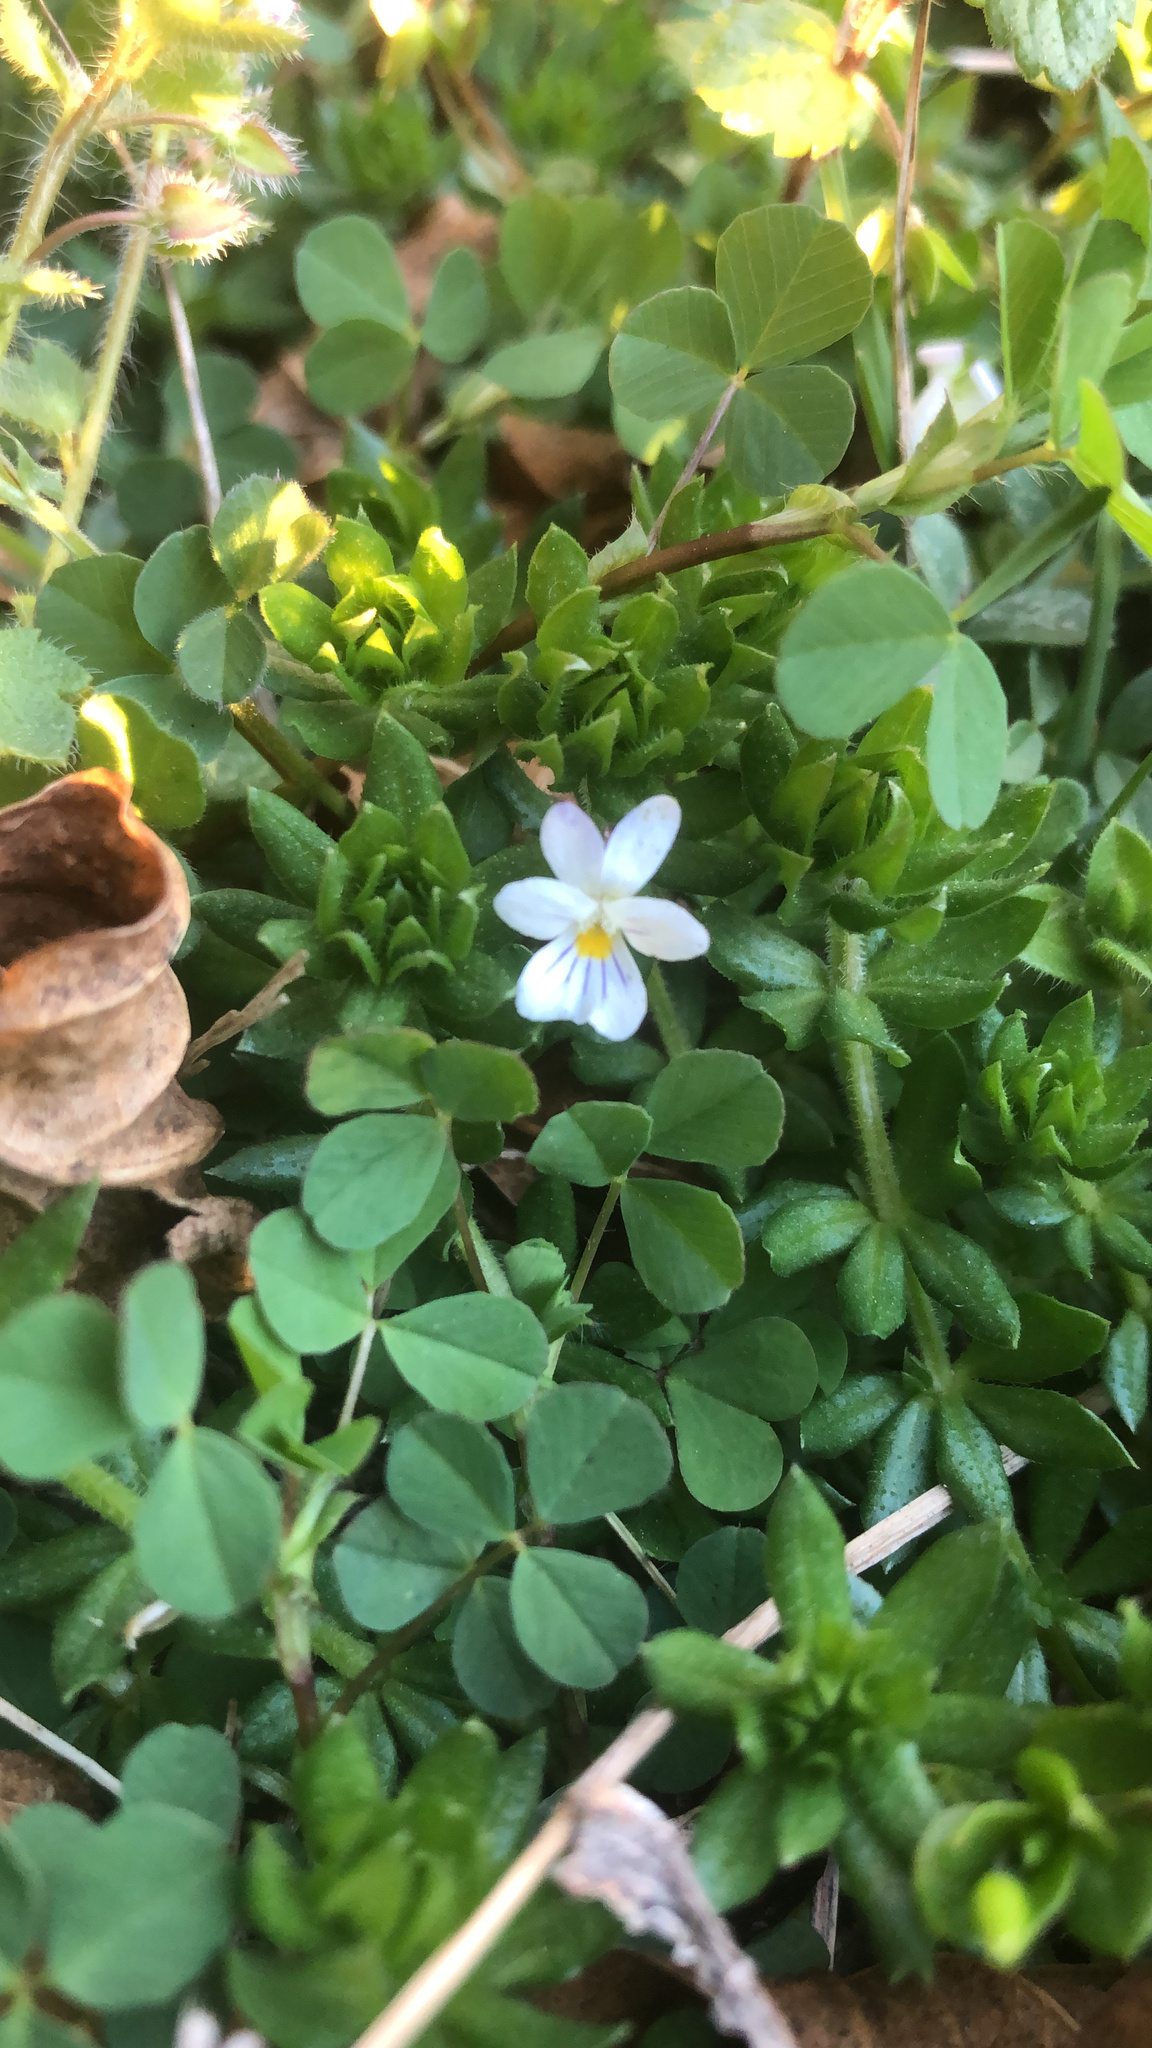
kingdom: Plantae
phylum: Tracheophyta
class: Magnoliopsida
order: Malpighiales
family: Violaceae
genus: Viola
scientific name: Viola rafinesquei
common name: American field pansy
